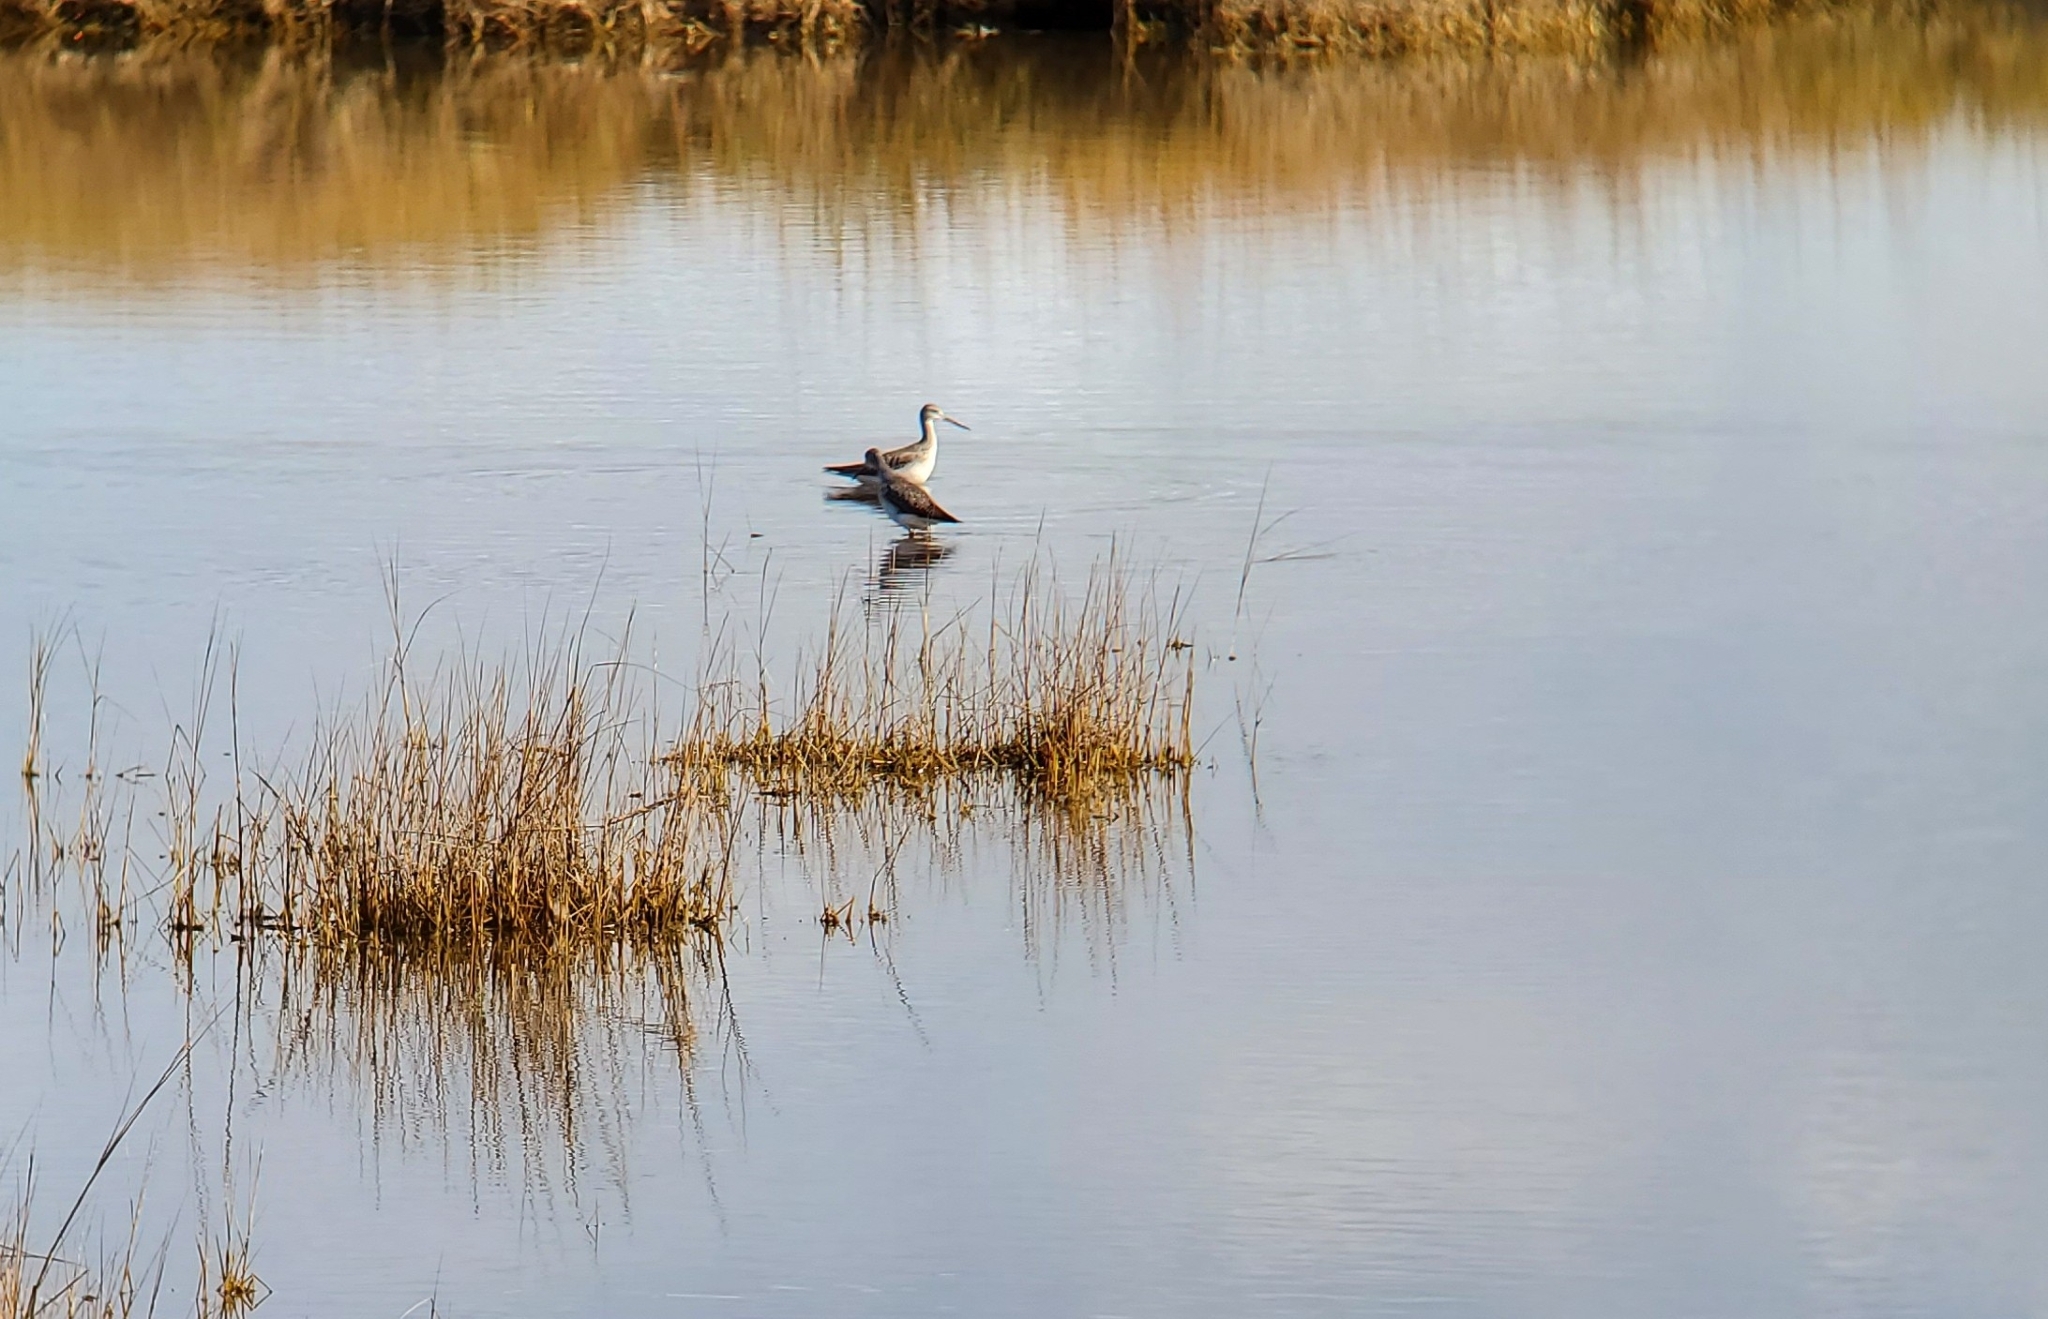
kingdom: Animalia
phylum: Chordata
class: Aves
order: Charadriiformes
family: Scolopacidae
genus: Tringa
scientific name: Tringa melanoleuca
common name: Greater yellowlegs
